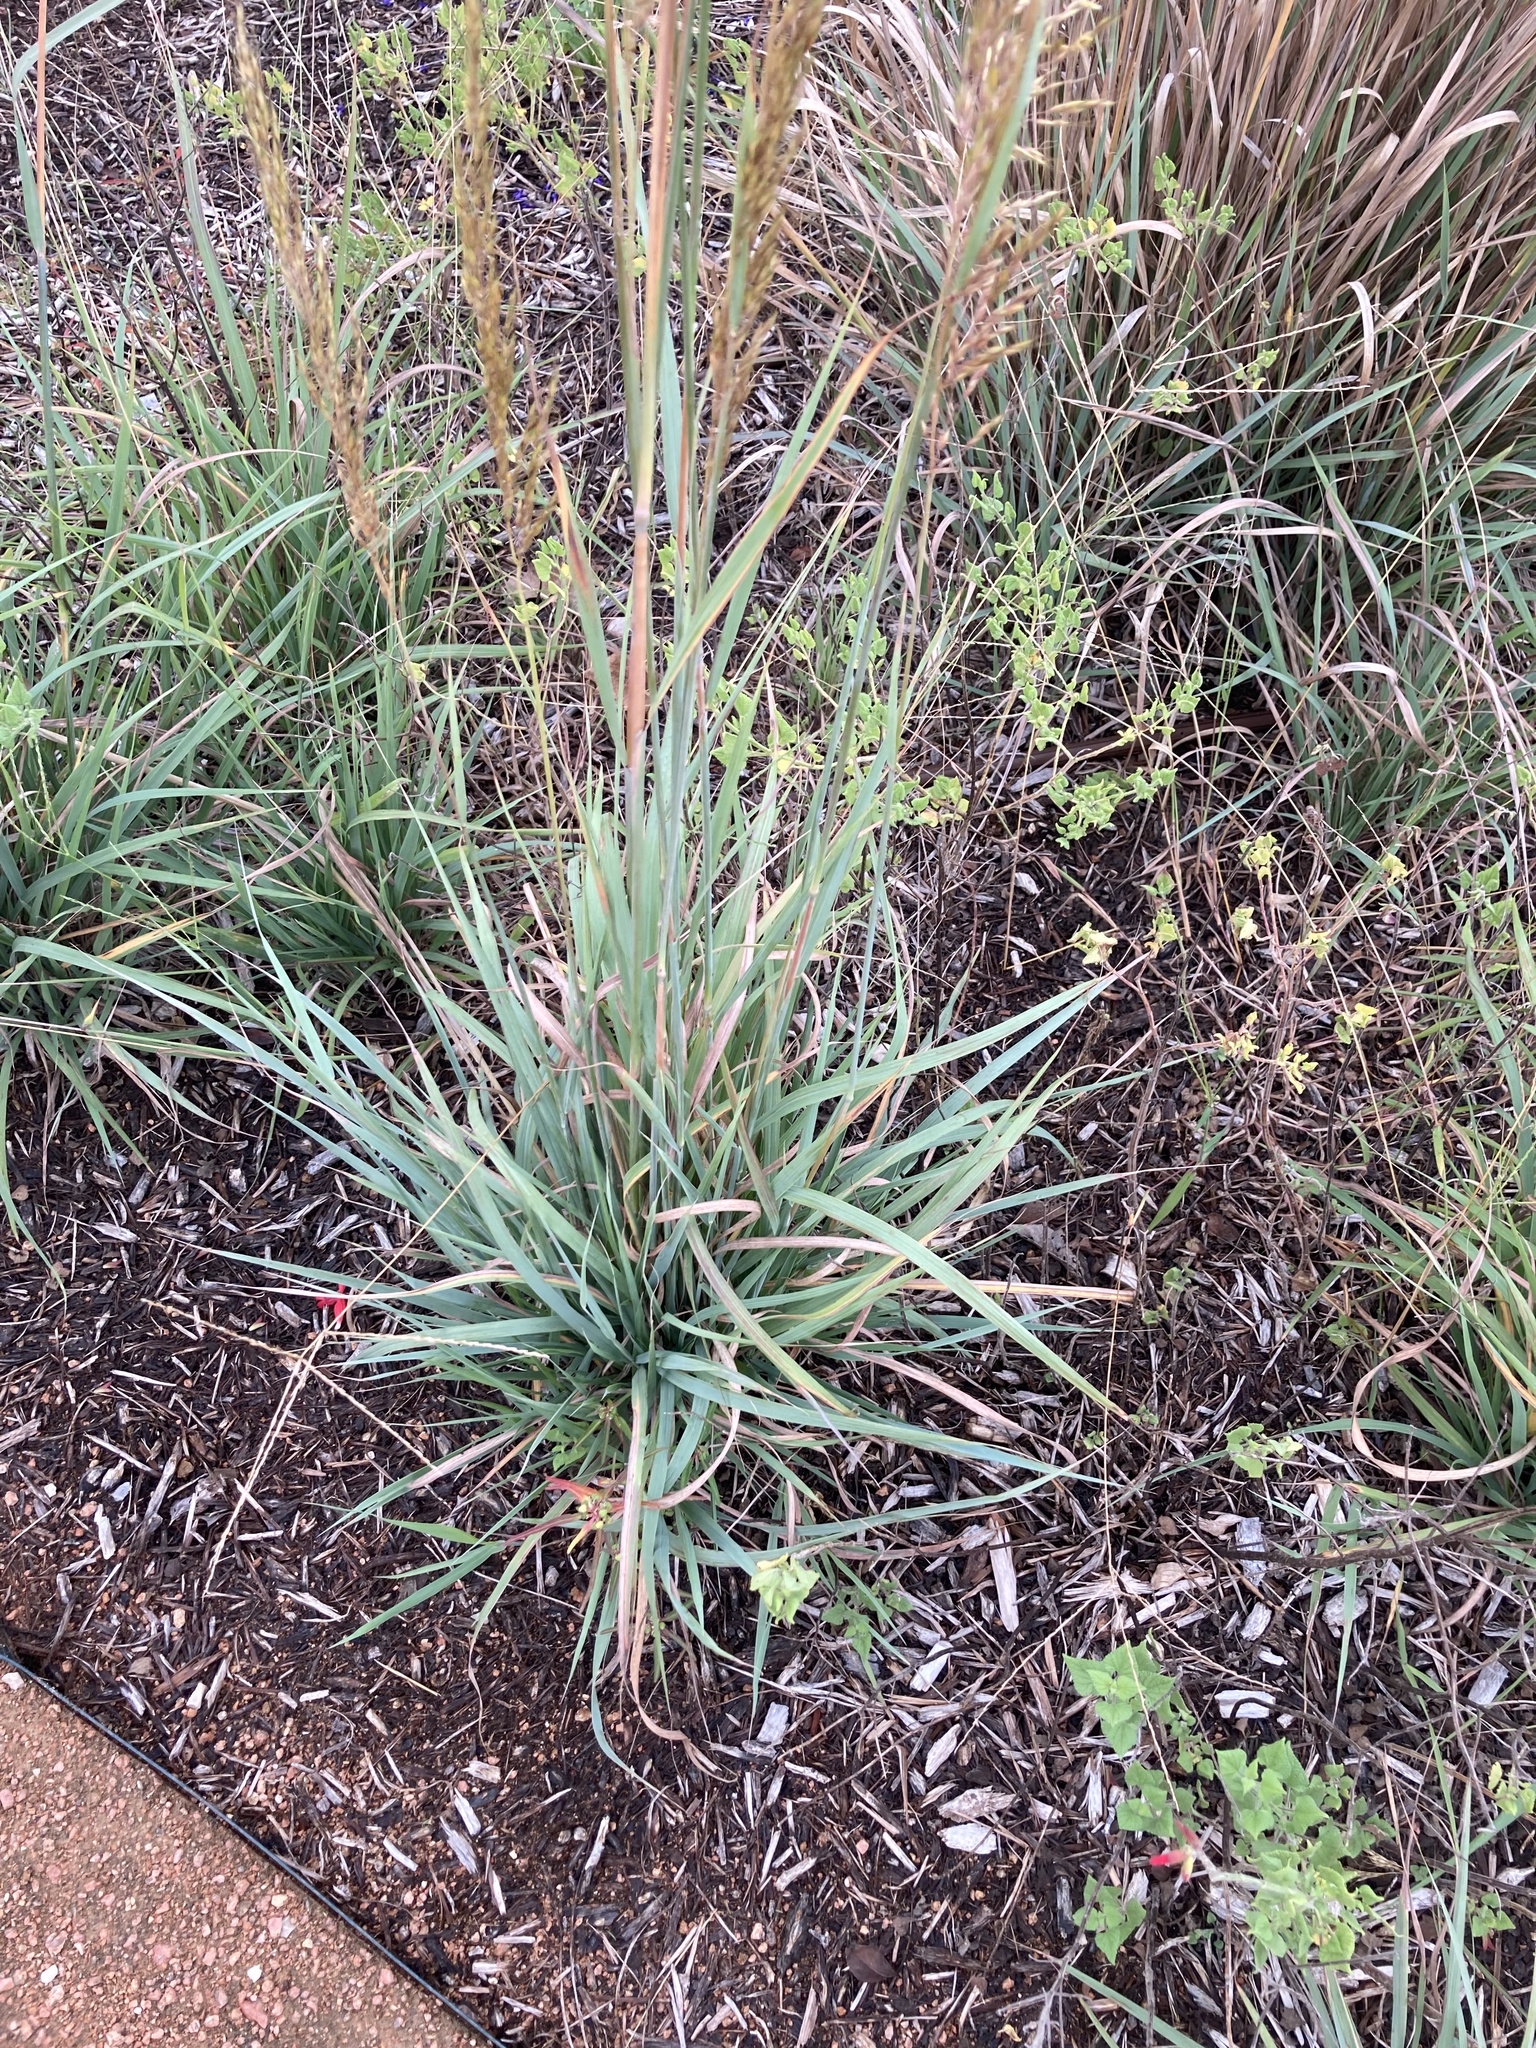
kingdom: Plantae
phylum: Tracheophyta
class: Liliopsida
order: Poales
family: Poaceae
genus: Sorghastrum
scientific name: Sorghastrum nutans
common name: Indian grass
